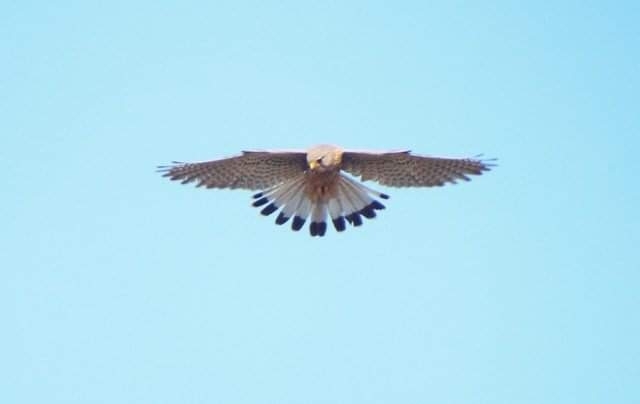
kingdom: Animalia
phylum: Chordata
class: Aves
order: Falconiformes
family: Falconidae
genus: Falco
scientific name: Falco tinnunculus
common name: Common kestrel
